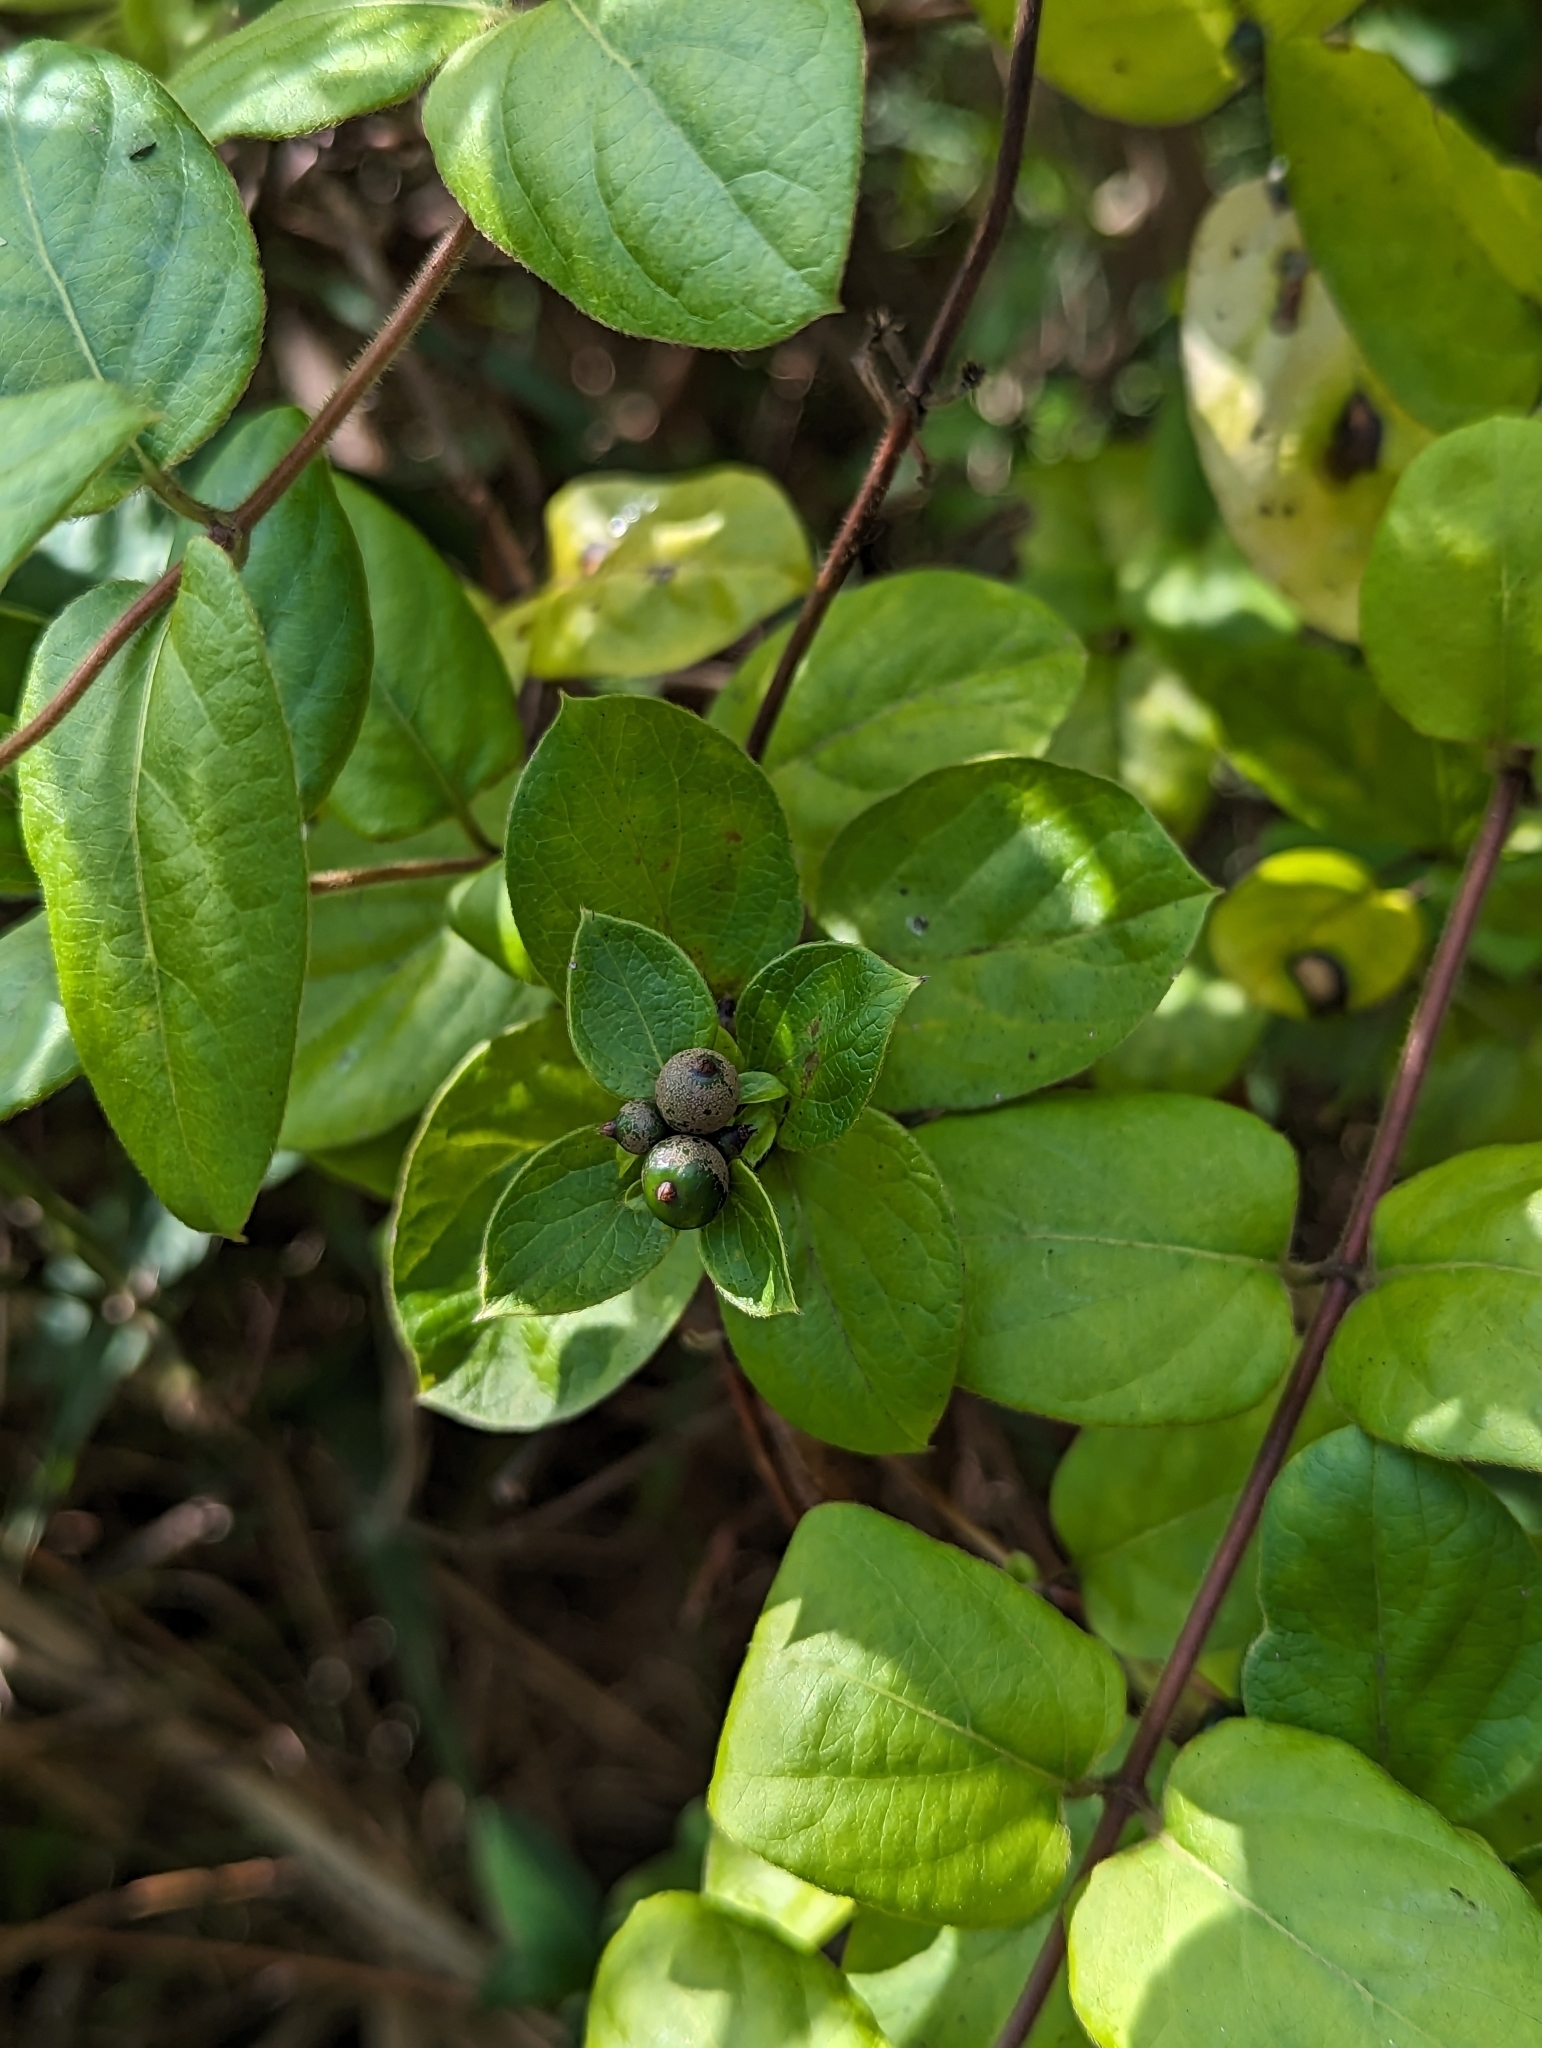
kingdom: Plantae
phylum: Tracheophyta
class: Magnoliopsida
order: Dipsacales
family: Caprifoliaceae
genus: Lonicera
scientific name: Lonicera japonica
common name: Japanese honeysuckle
